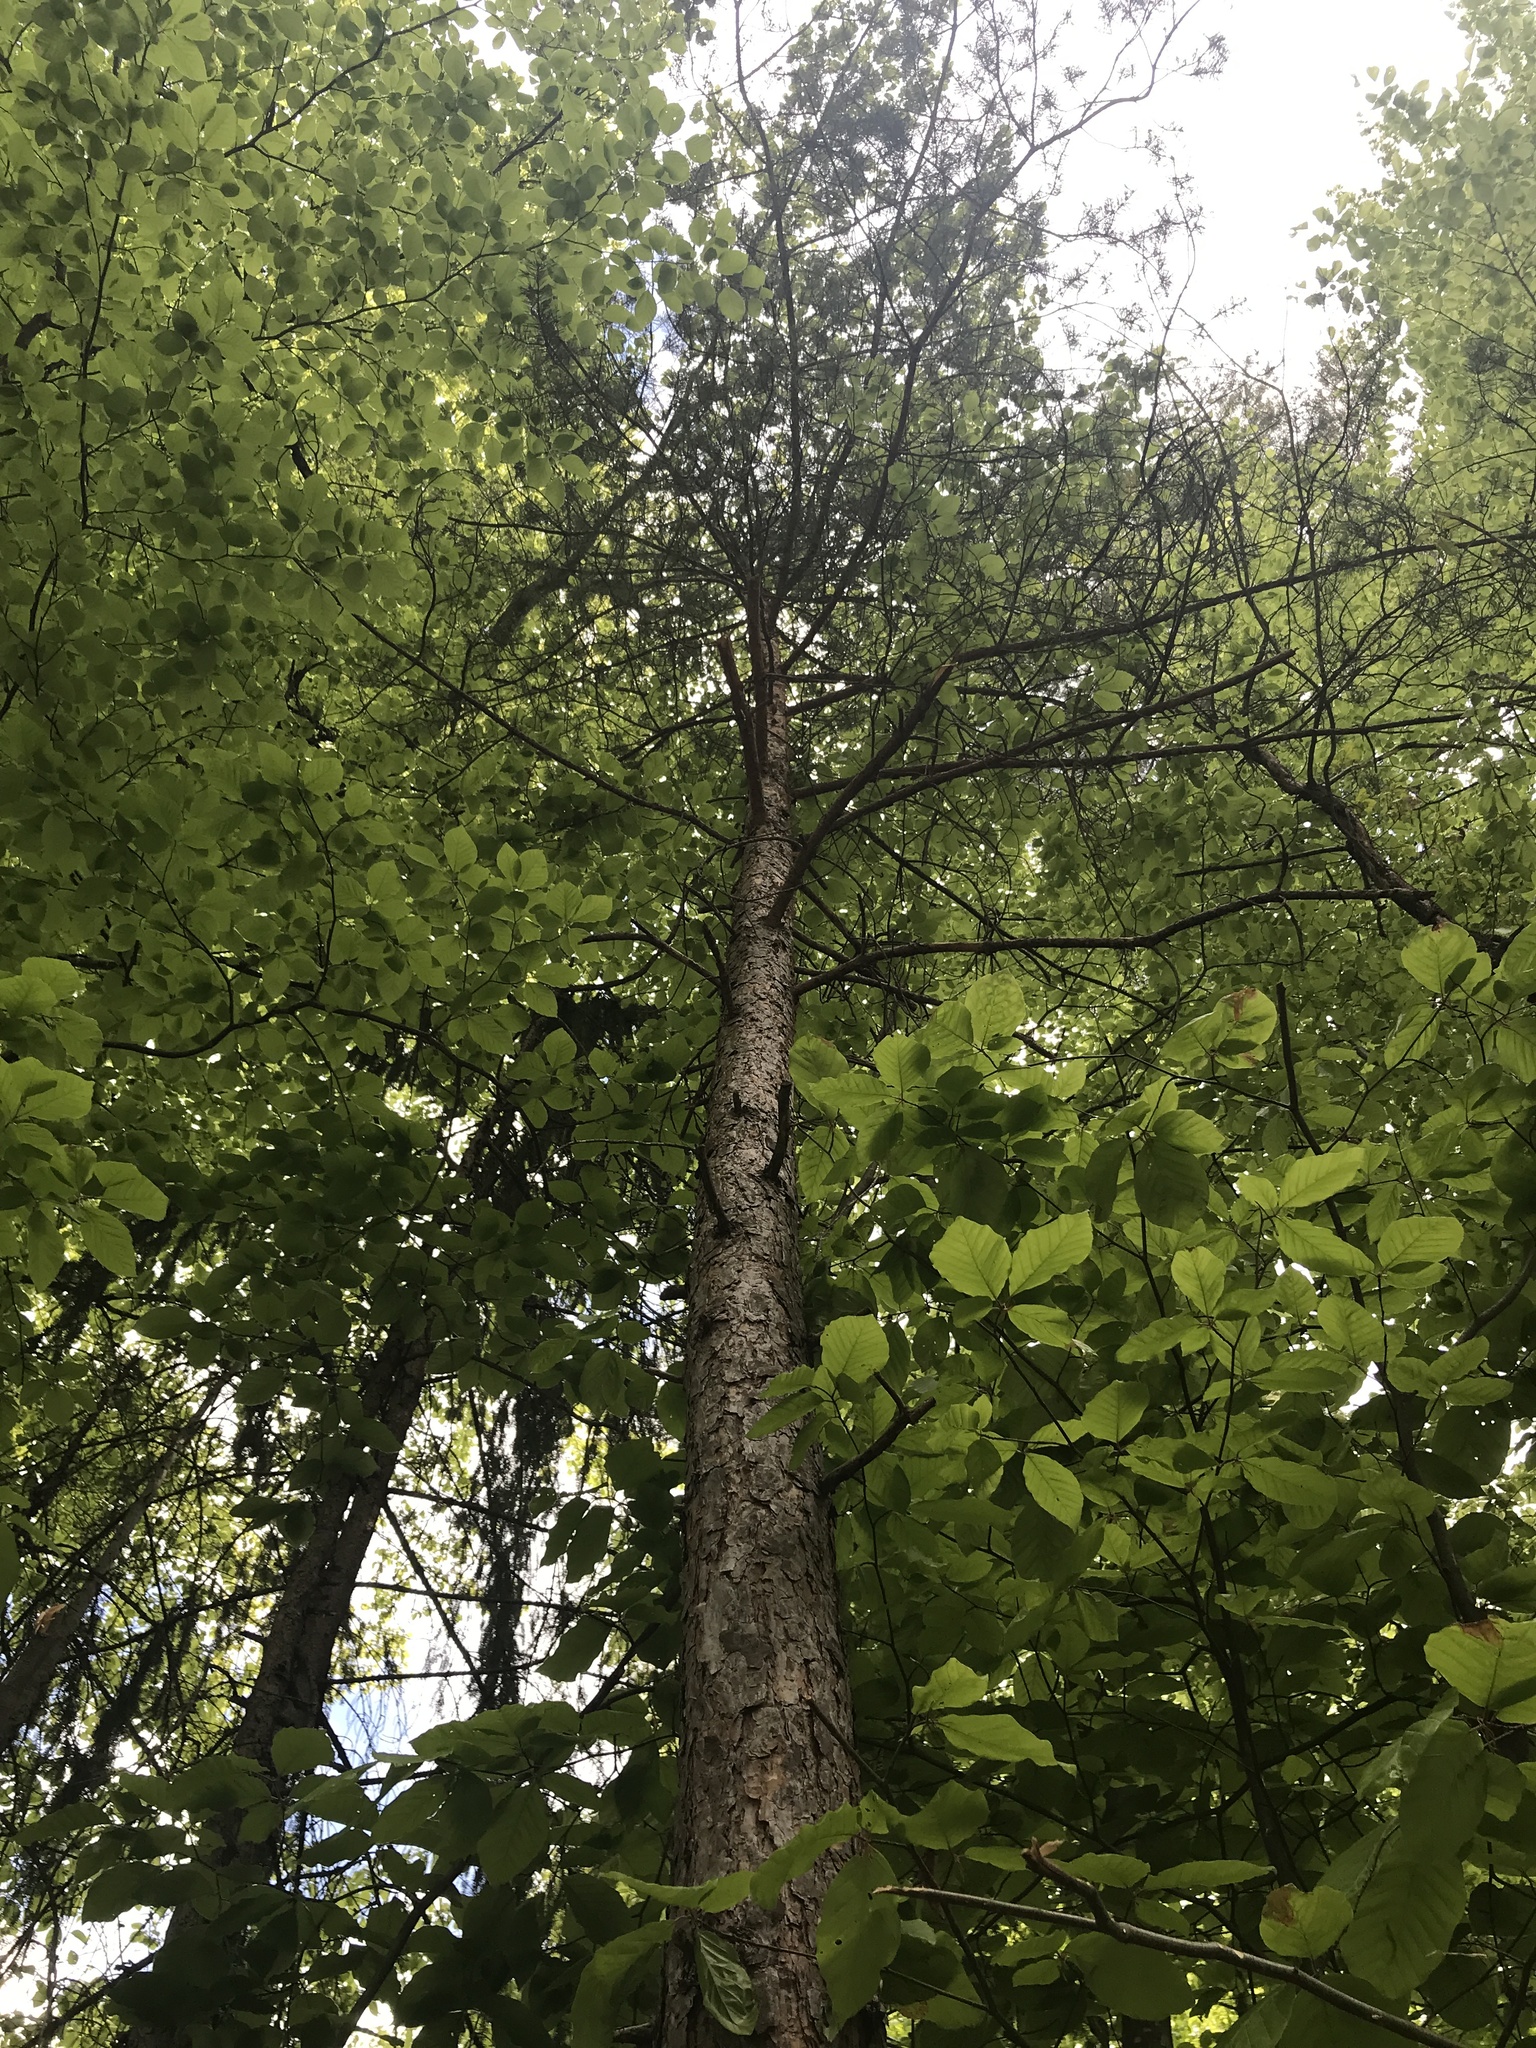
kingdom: Plantae
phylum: Tracheophyta
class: Pinopsida
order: Pinales
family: Pinaceae
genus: Pinus
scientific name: Pinus sylvestris
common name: Scots pine
